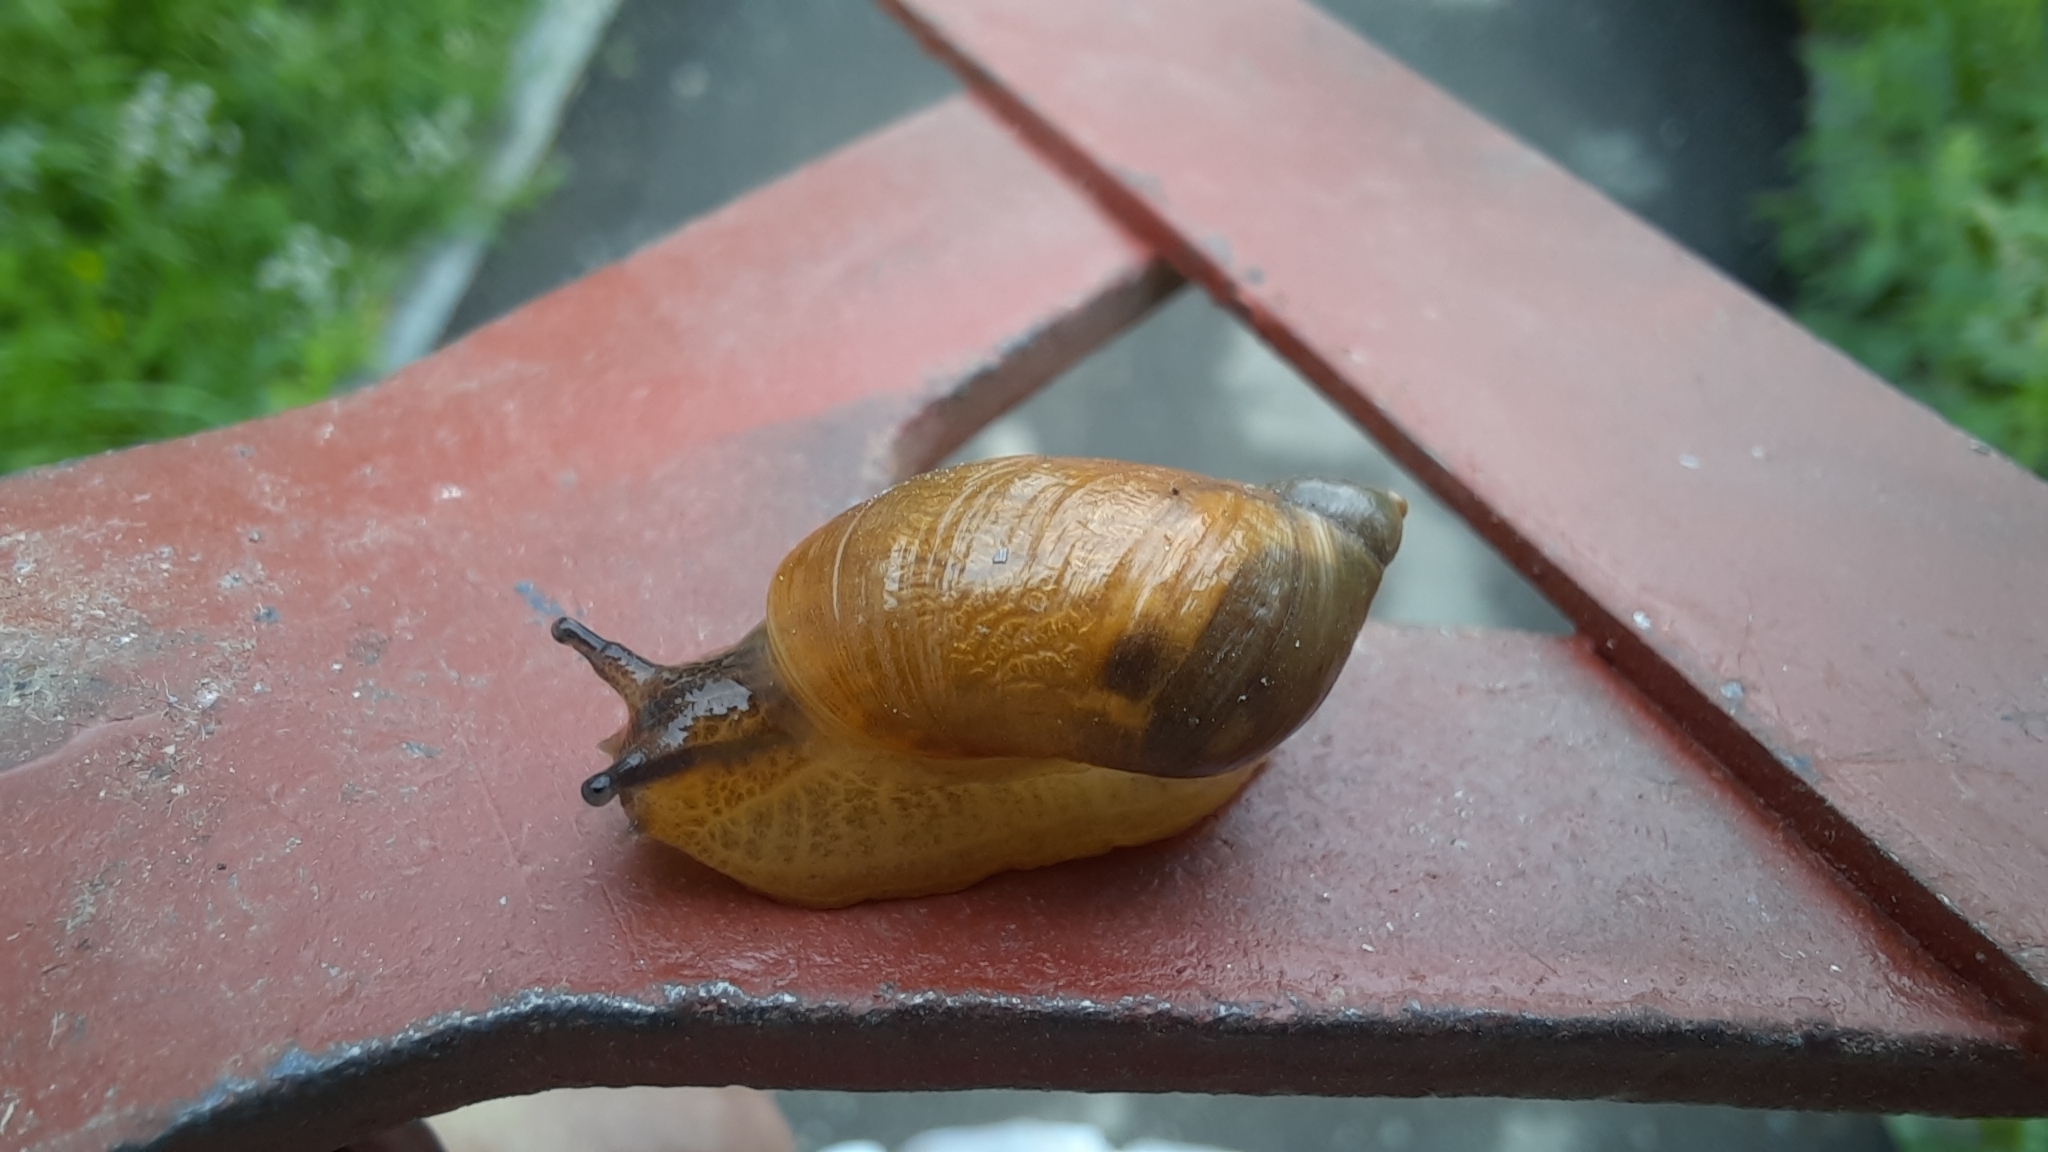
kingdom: Animalia
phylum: Mollusca
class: Gastropoda
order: Stylommatophora
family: Succineidae
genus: Succinea
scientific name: Succinea putris
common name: European ambersnail
